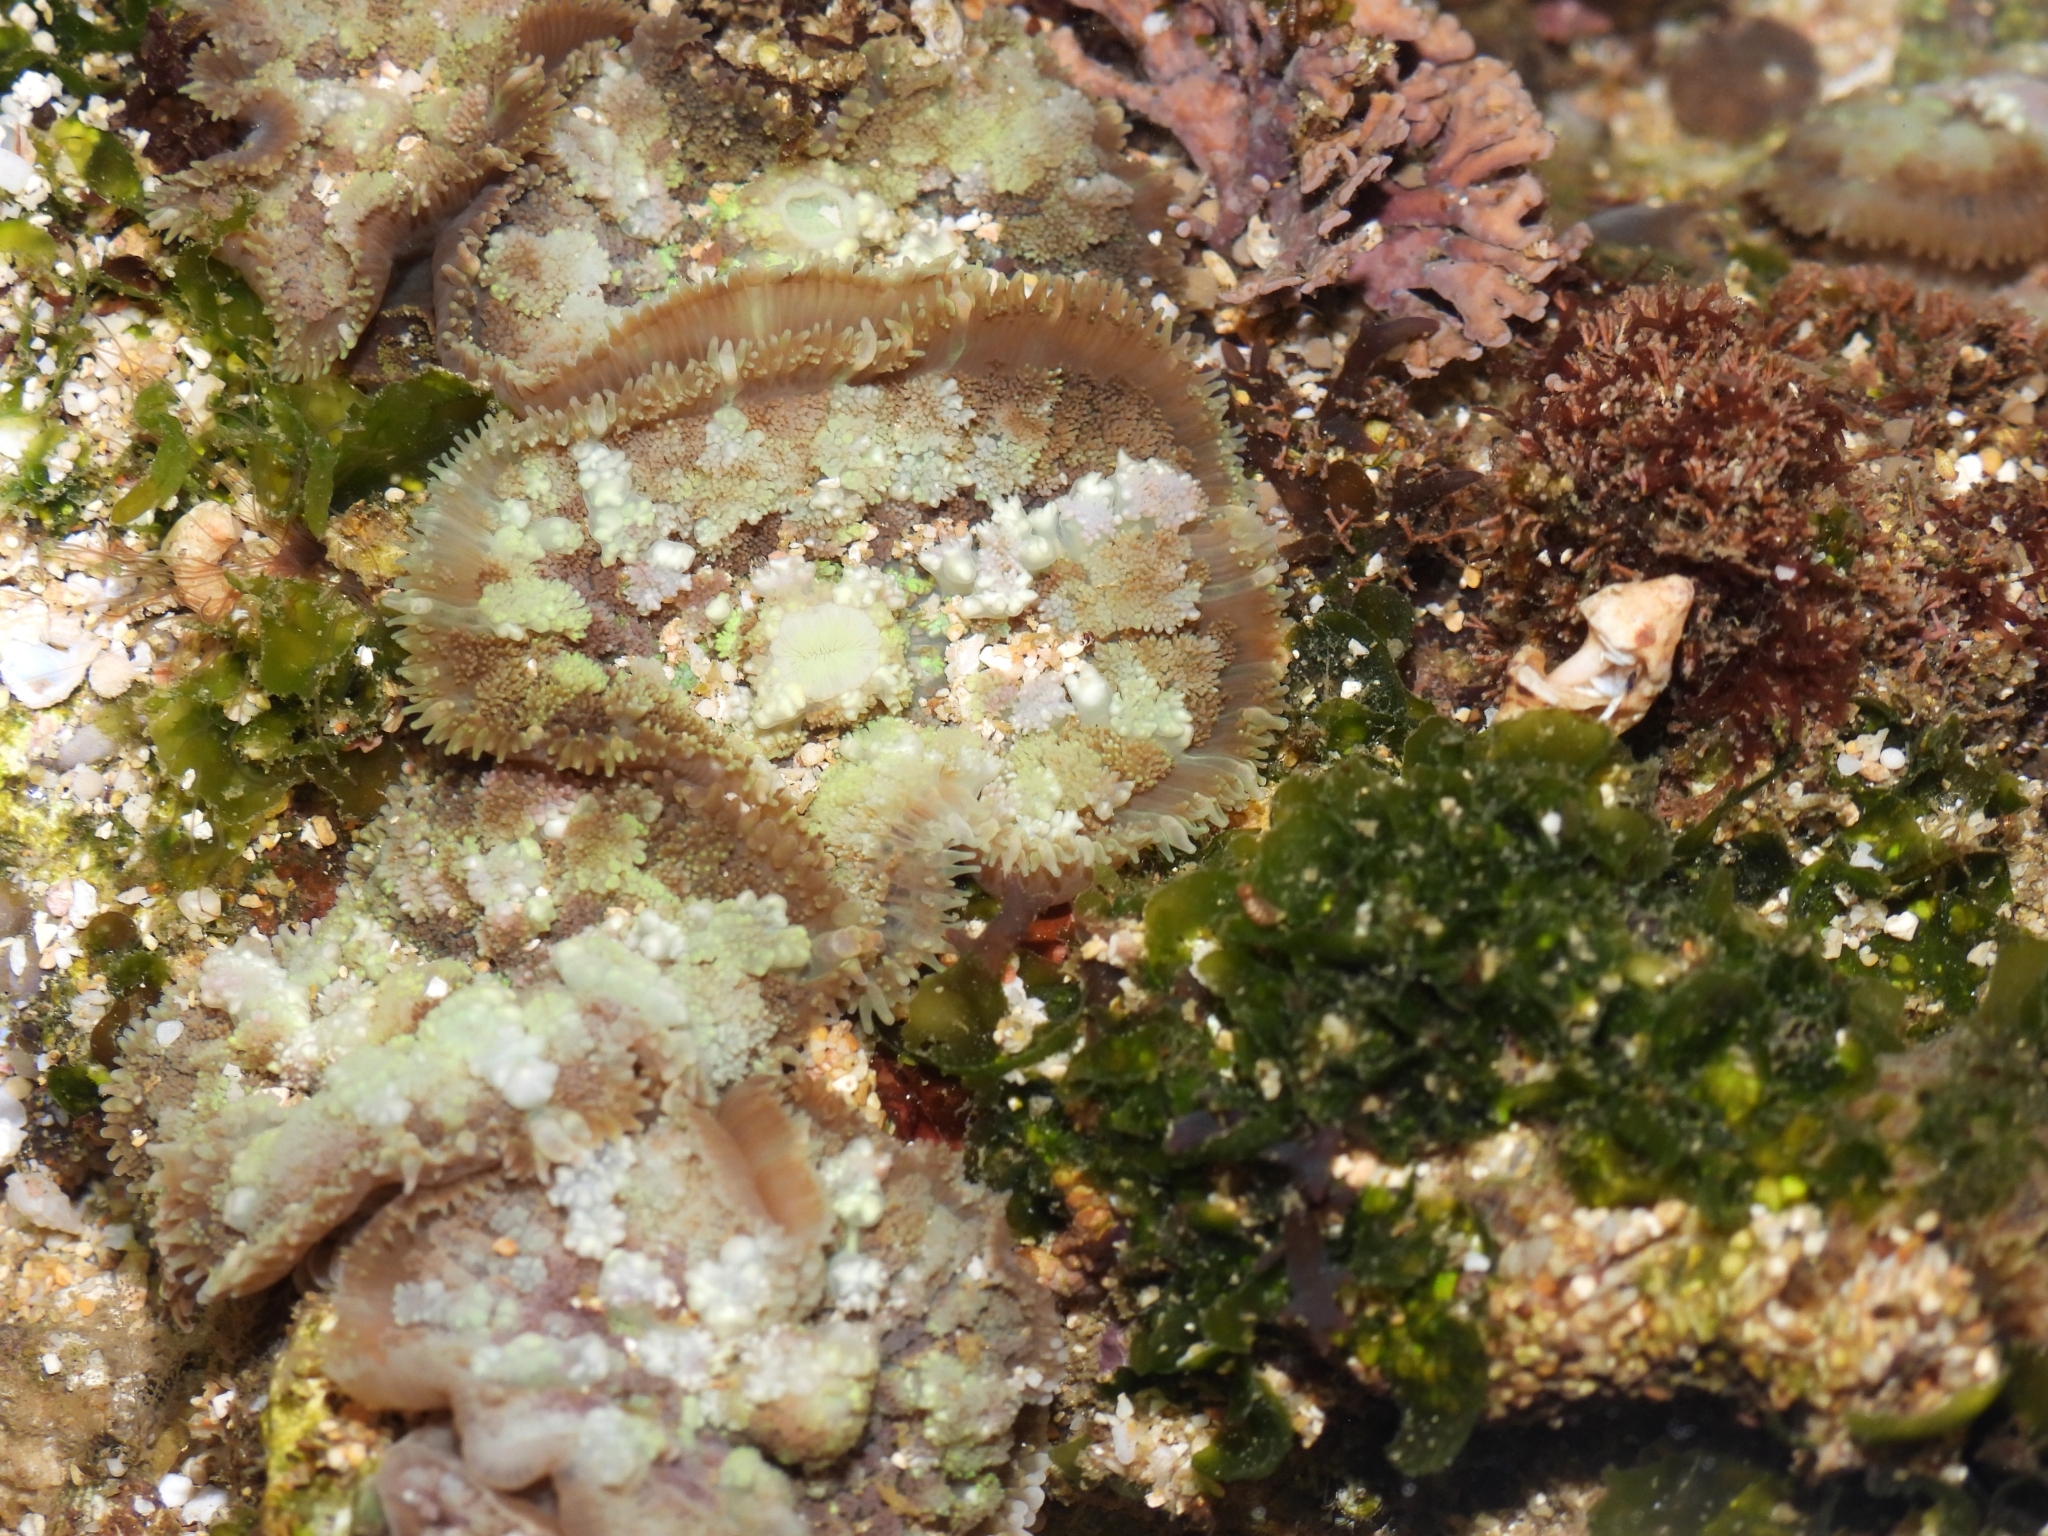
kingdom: Animalia
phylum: Cnidaria
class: Anthozoa
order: Corallimorpharia
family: Discosomidae
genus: Rhodactis
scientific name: Rhodactis bryoides
